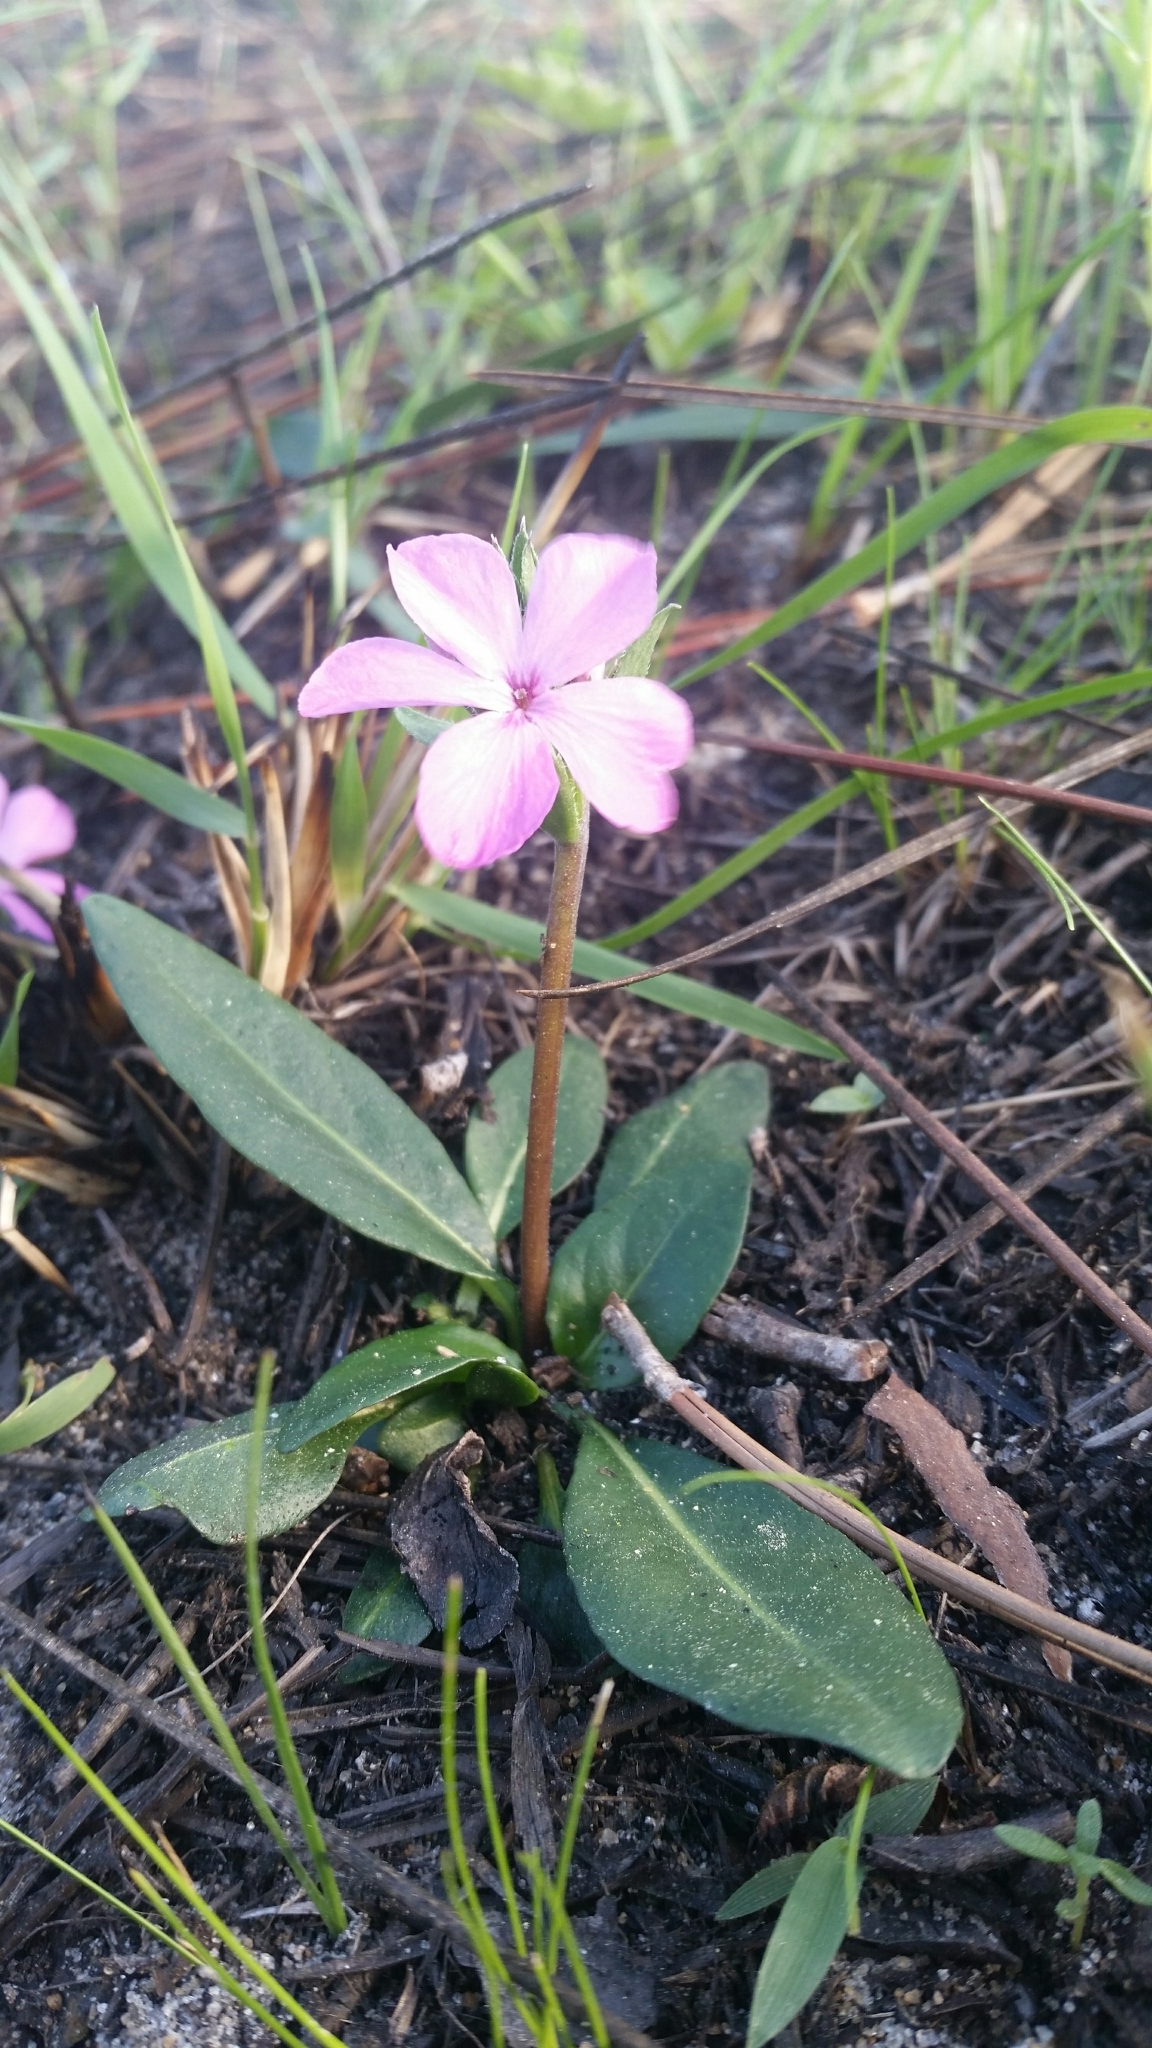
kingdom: Plantae
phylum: Tracheophyta
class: Magnoliopsida
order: Lamiales
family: Acanthaceae
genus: Stenandrium
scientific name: Stenandrium dulce
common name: Pinklet
